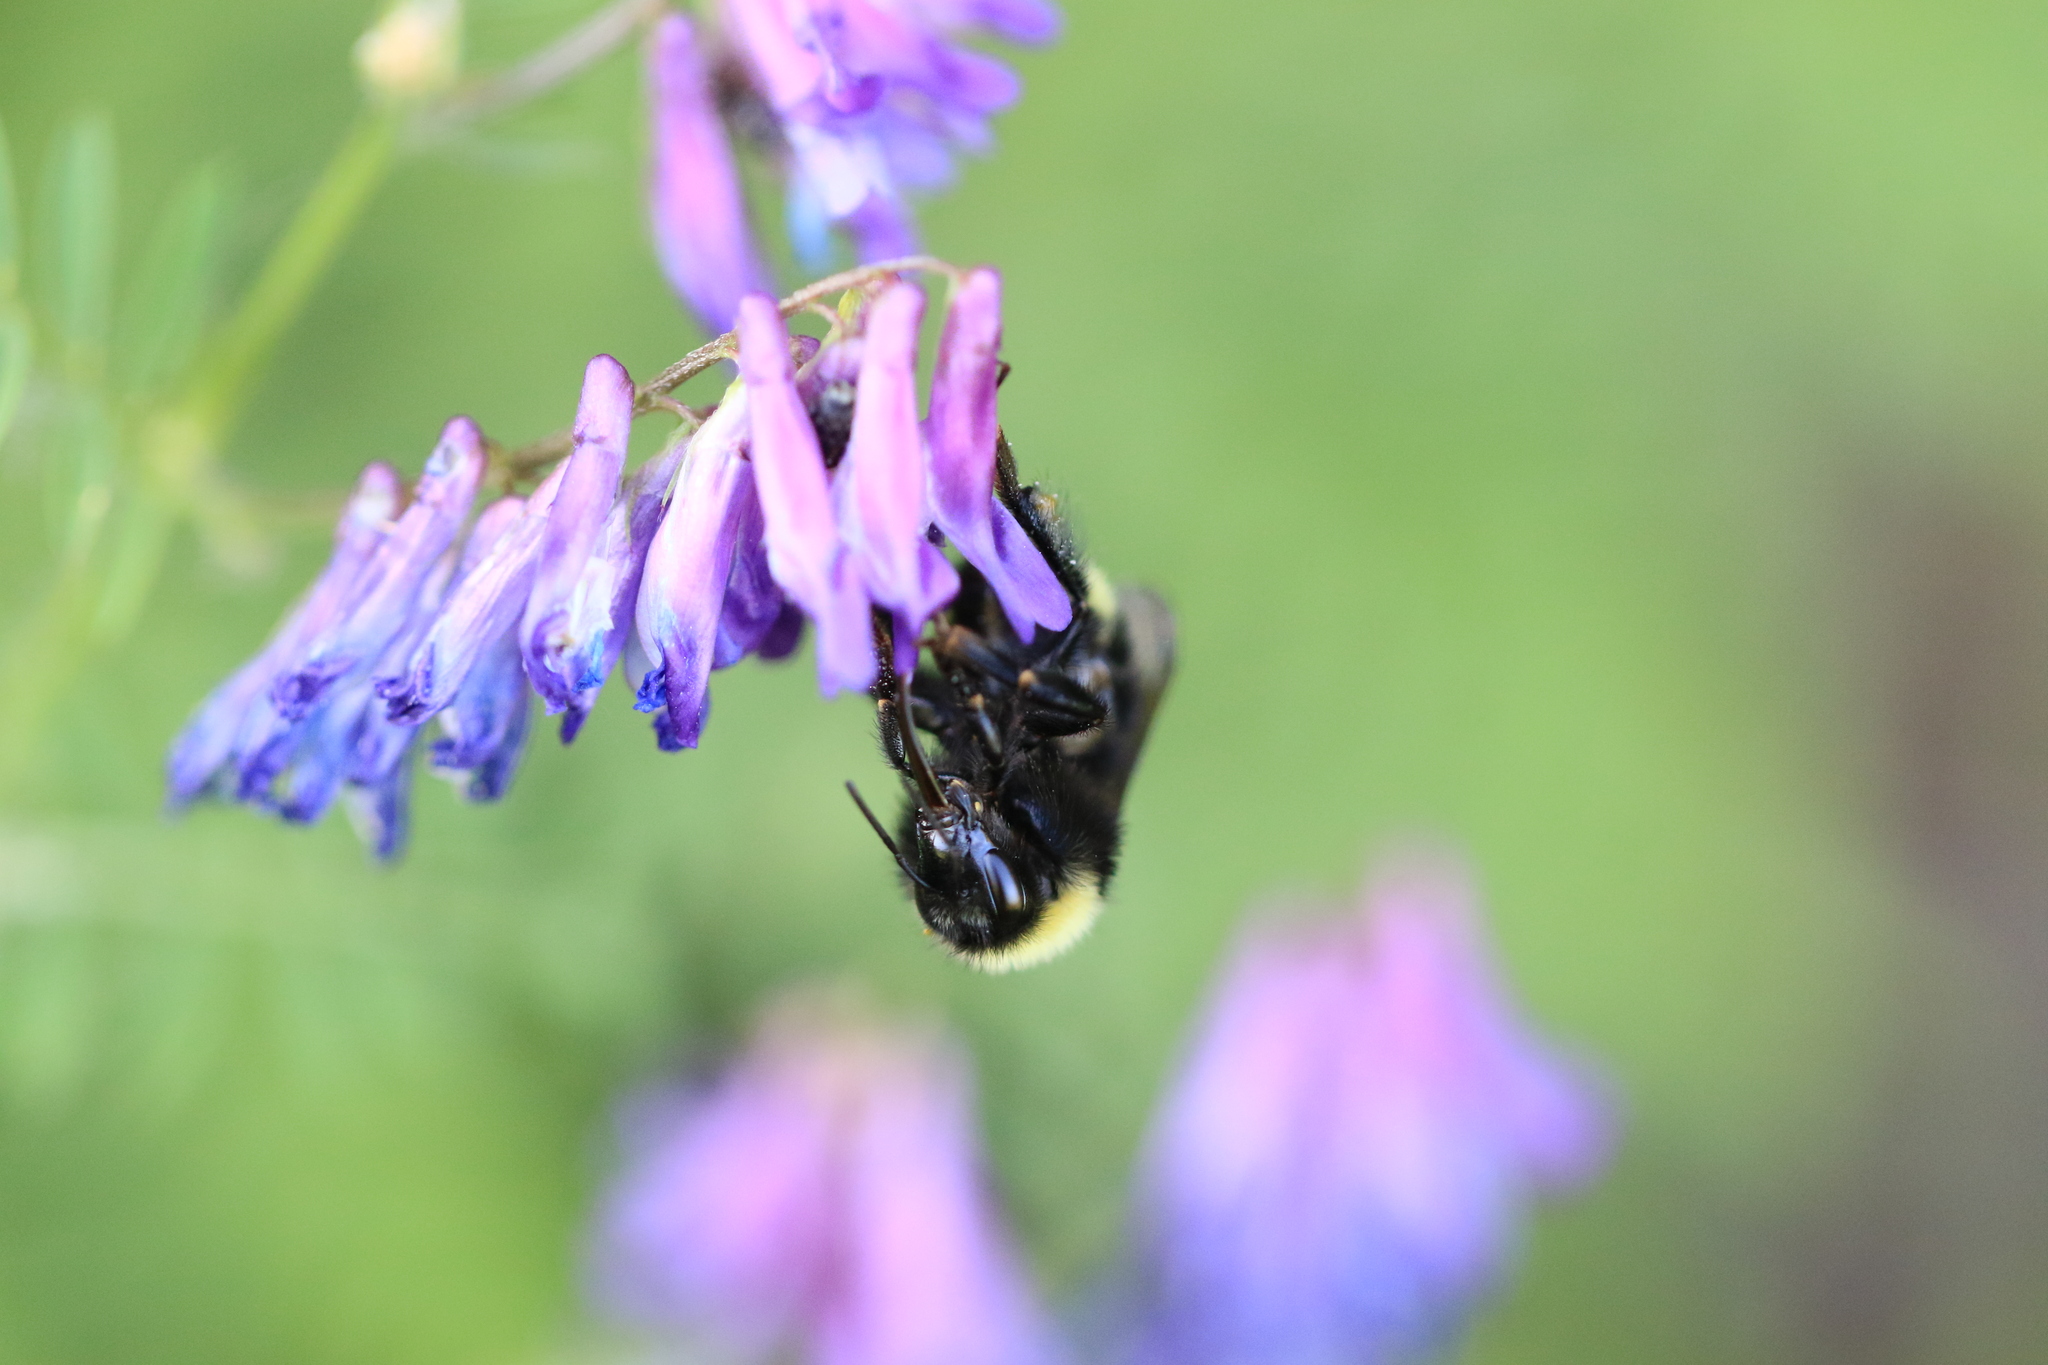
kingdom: Animalia
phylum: Arthropoda
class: Insecta
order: Hymenoptera
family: Apidae
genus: Bombus
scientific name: Bombus californicus
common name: California bumble bee
